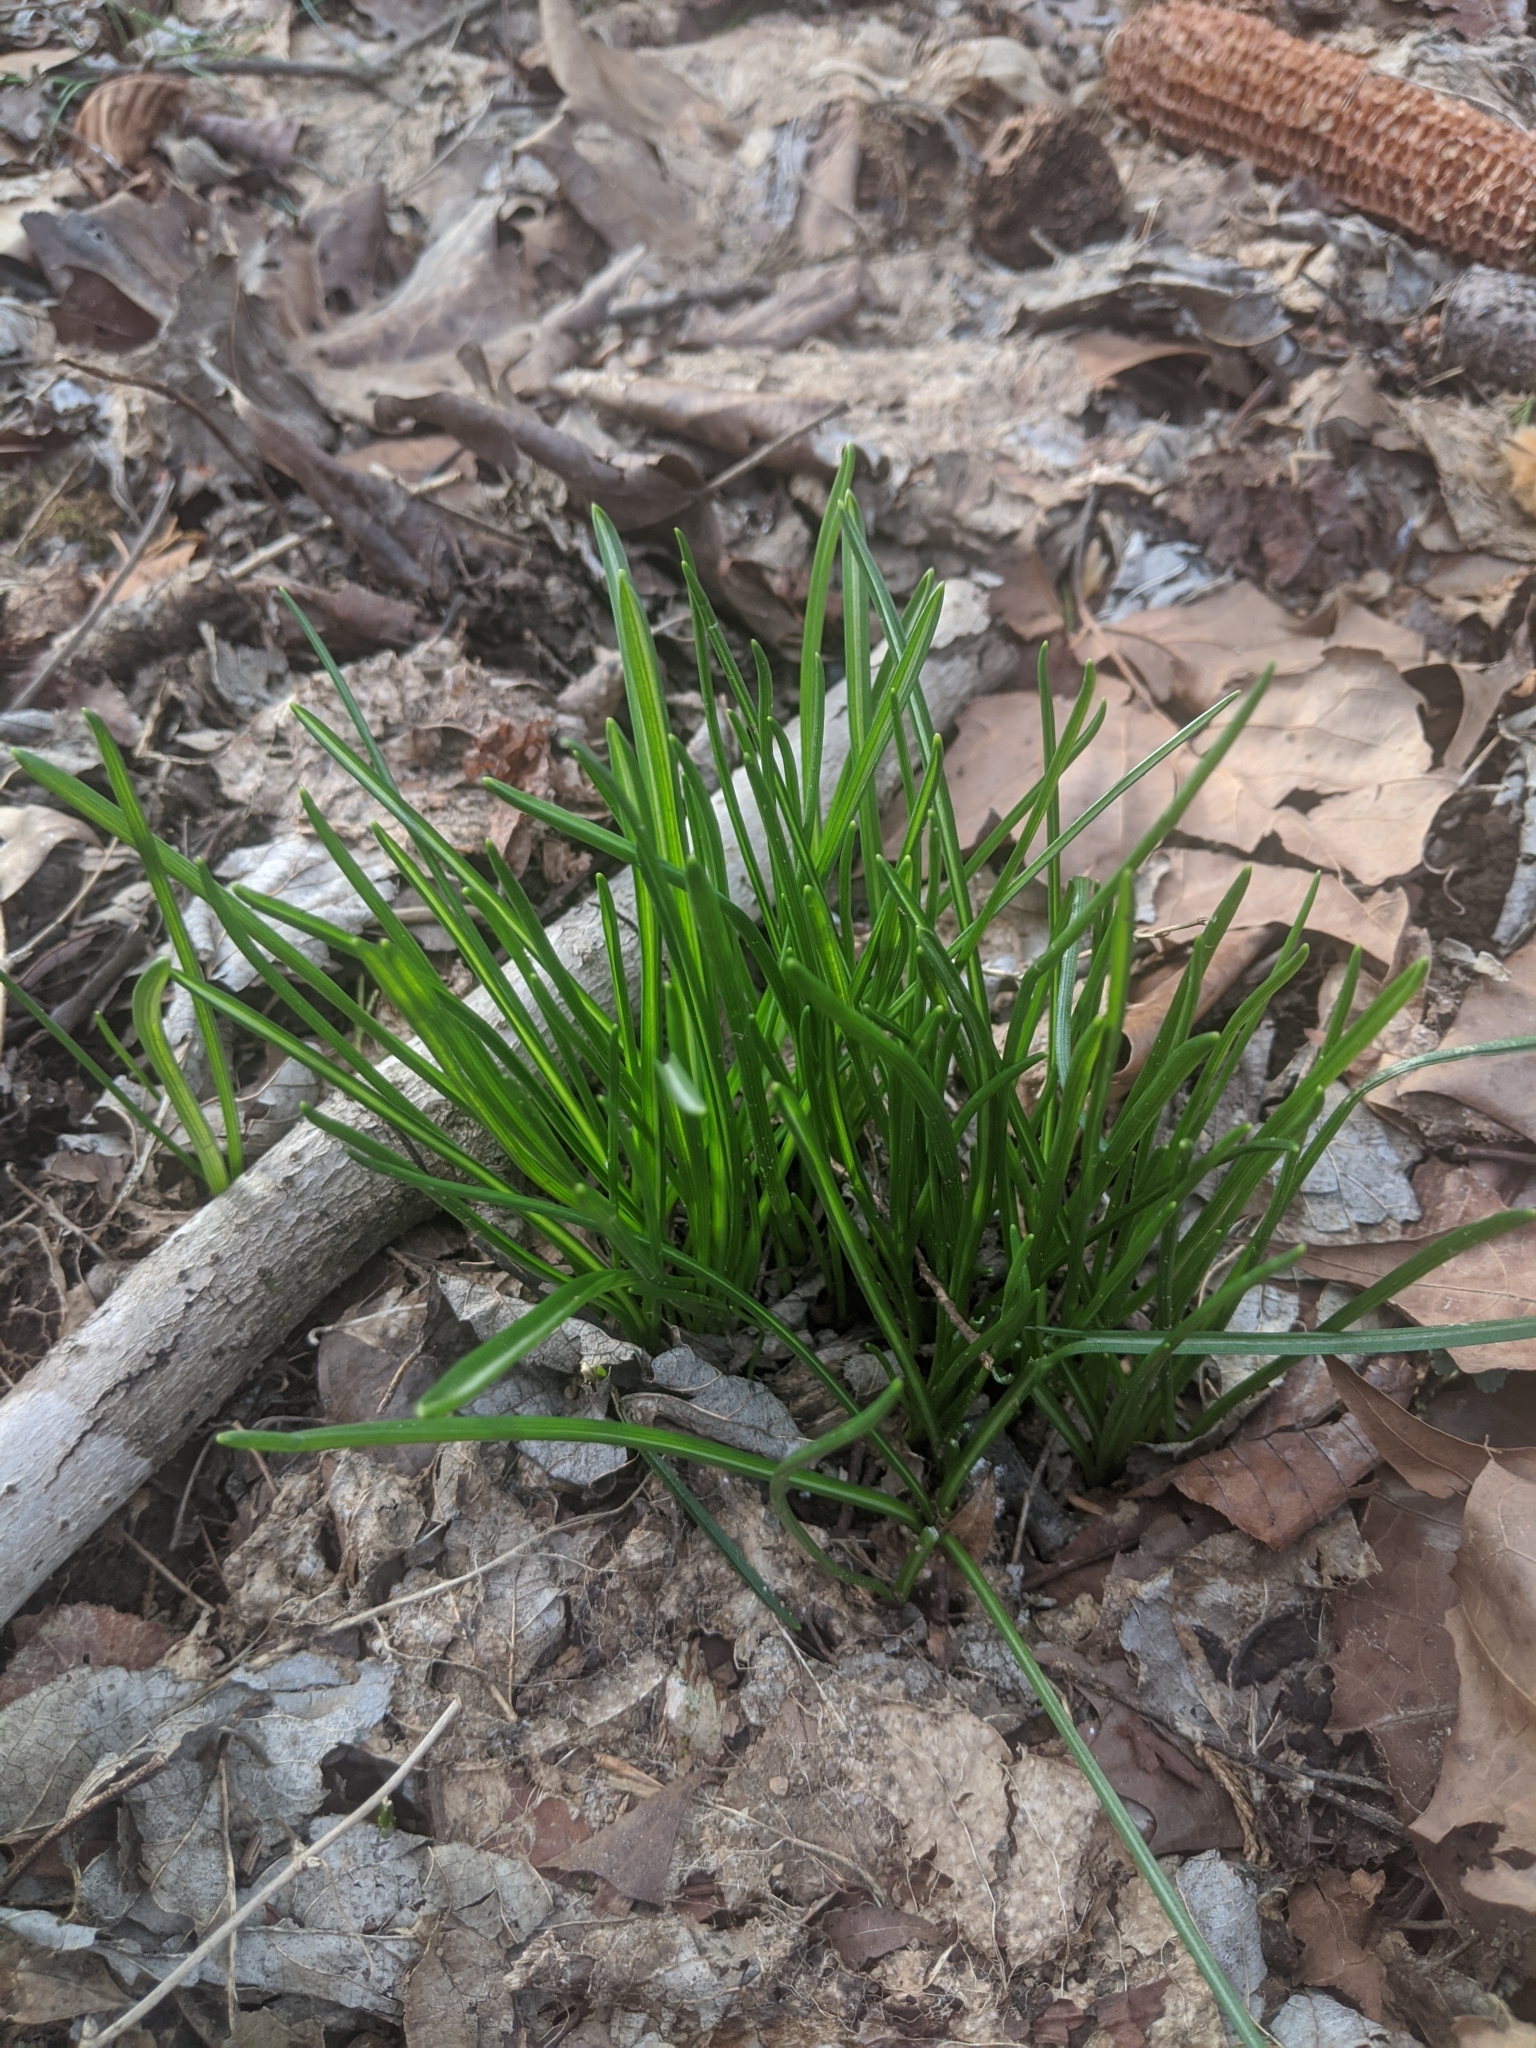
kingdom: Plantae
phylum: Tracheophyta
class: Liliopsida
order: Asparagales
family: Asparagaceae
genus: Ornithogalum
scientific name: Ornithogalum umbellatum
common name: Garden star-of-bethlehem
